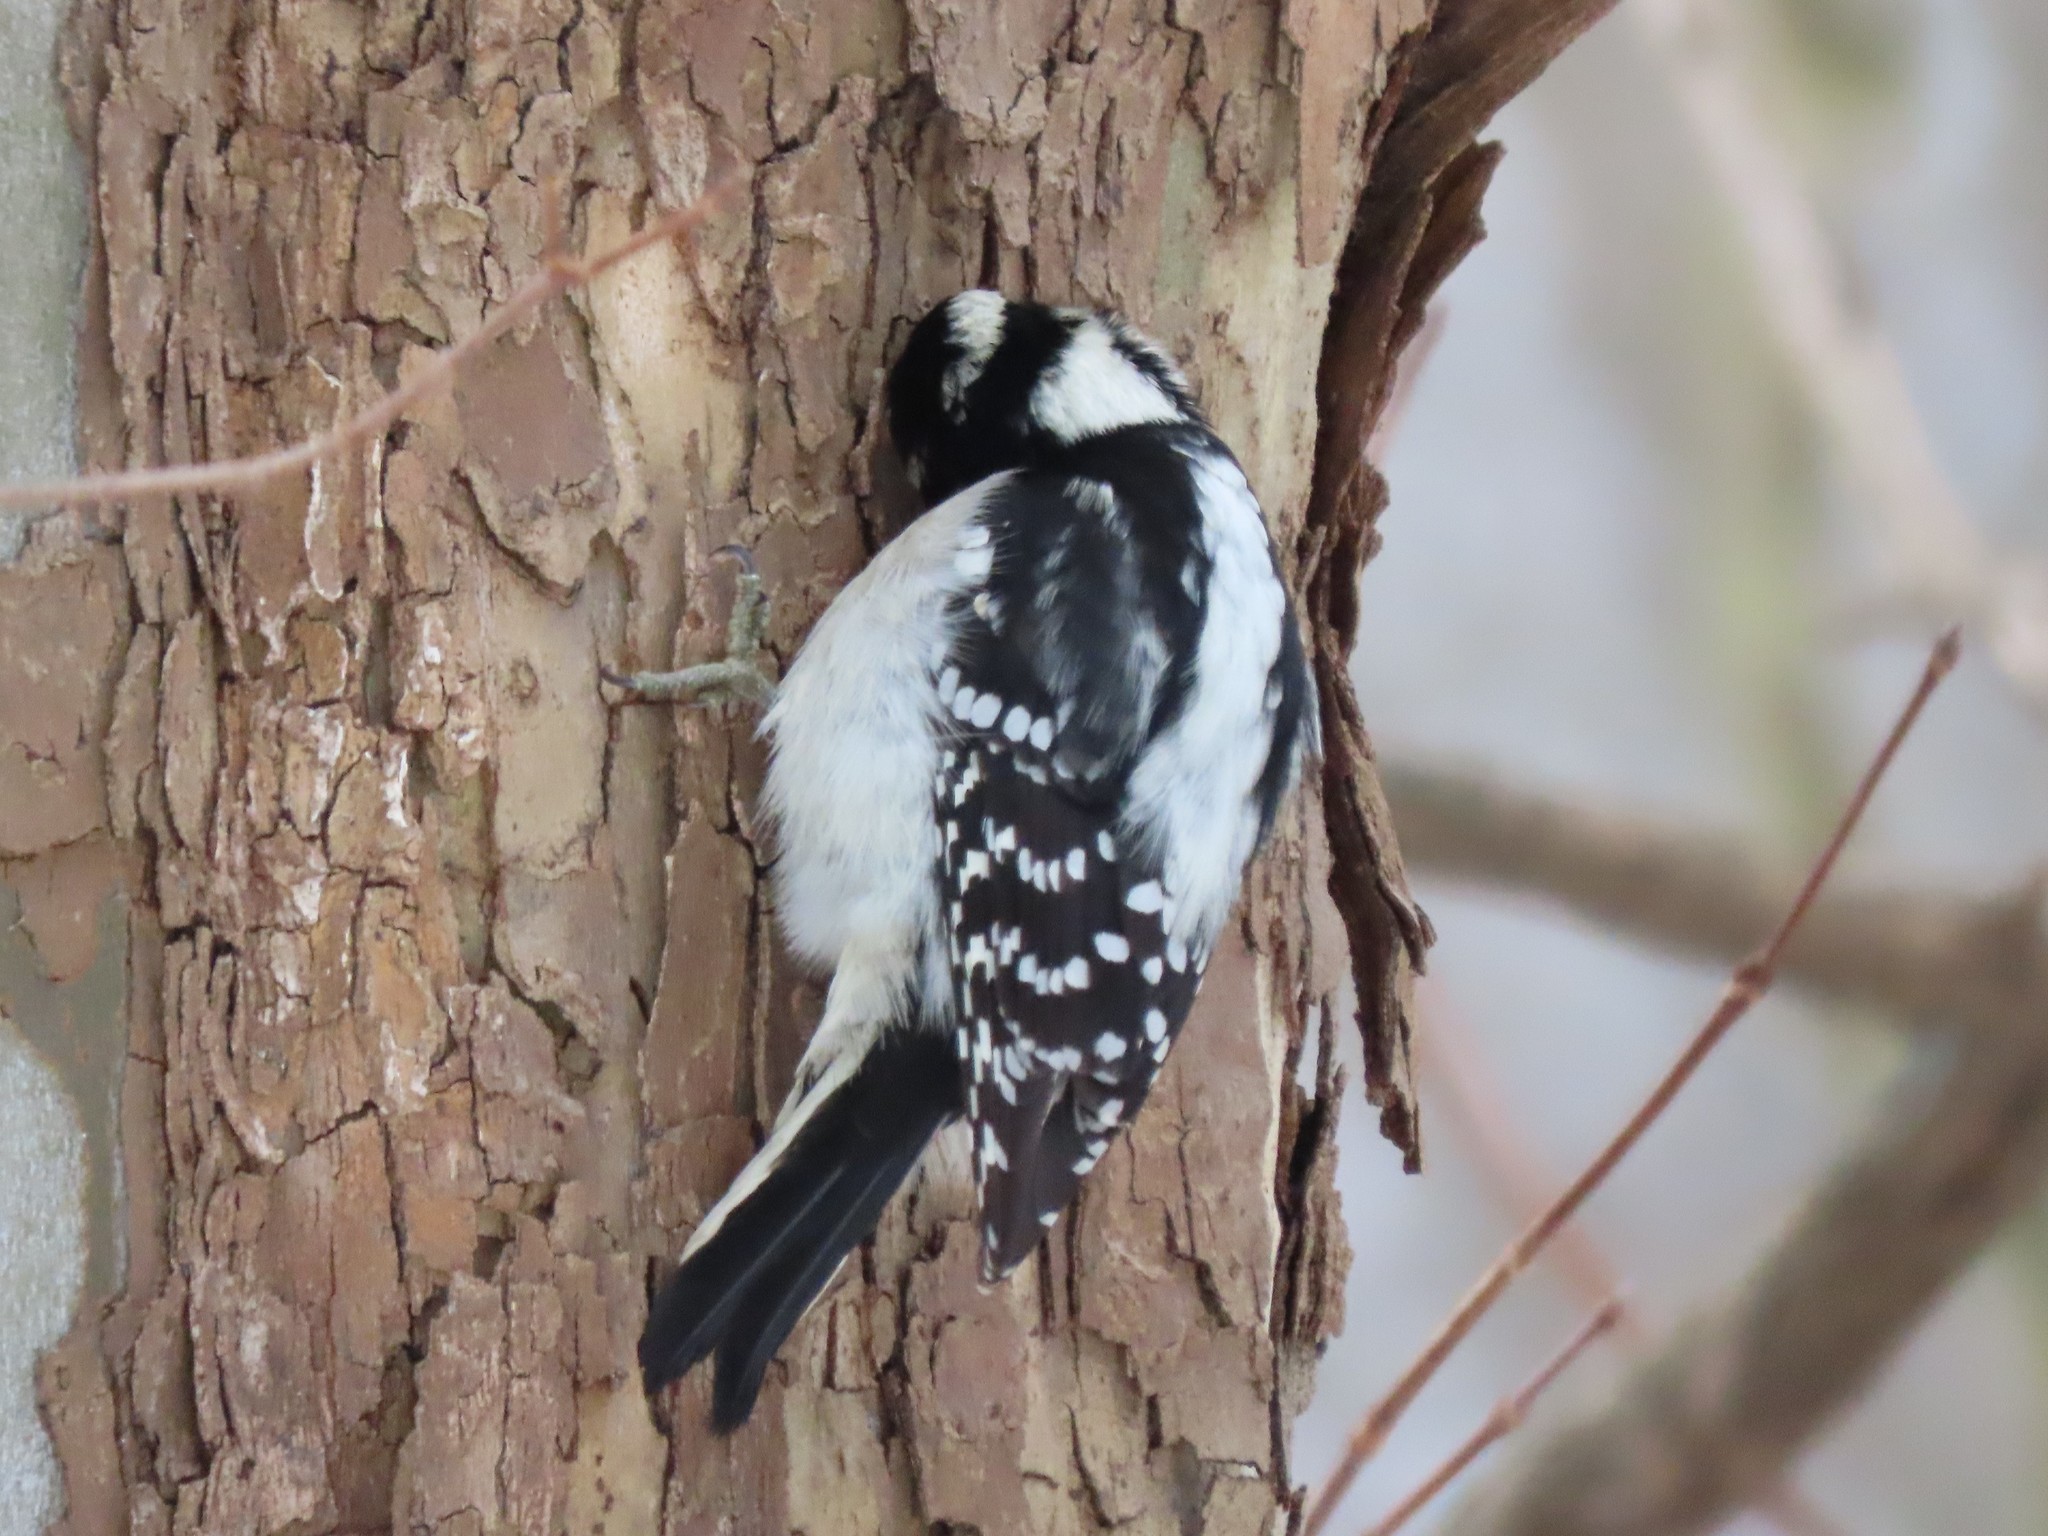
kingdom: Animalia
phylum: Chordata
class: Aves
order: Piciformes
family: Picidae
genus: Dryobates
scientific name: Dryobates pubescens
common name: Downy woodpecker
